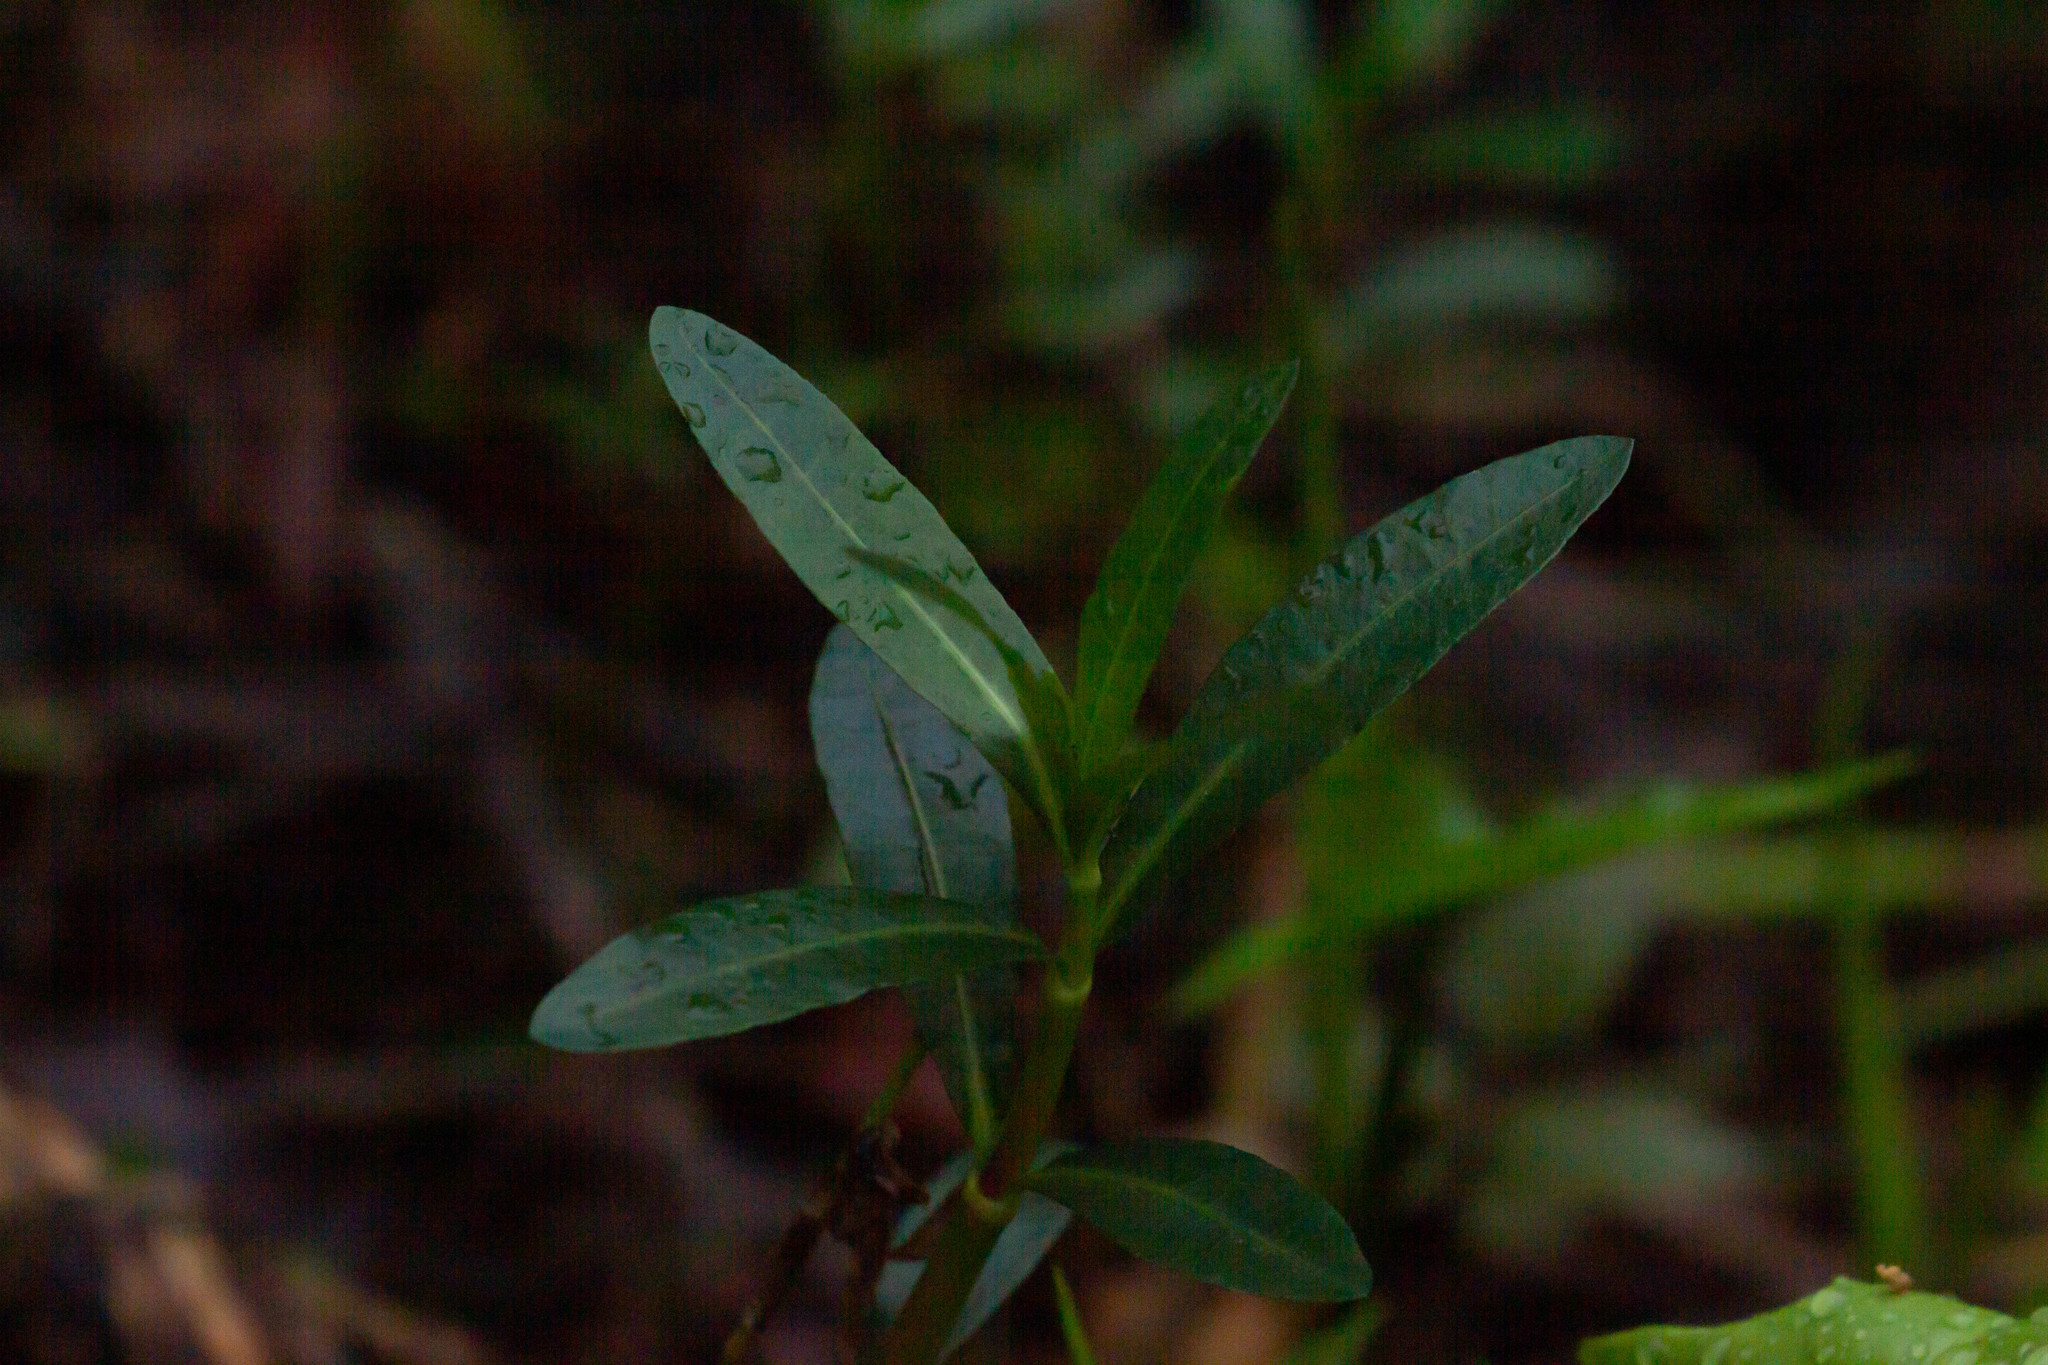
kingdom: Plantae
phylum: Tracheophyta
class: Magnoliopsida
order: Caryophyllales
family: Amaranthaceae
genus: Alternanthera
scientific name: Alternanthera philoxeroides
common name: Alligatorweed
